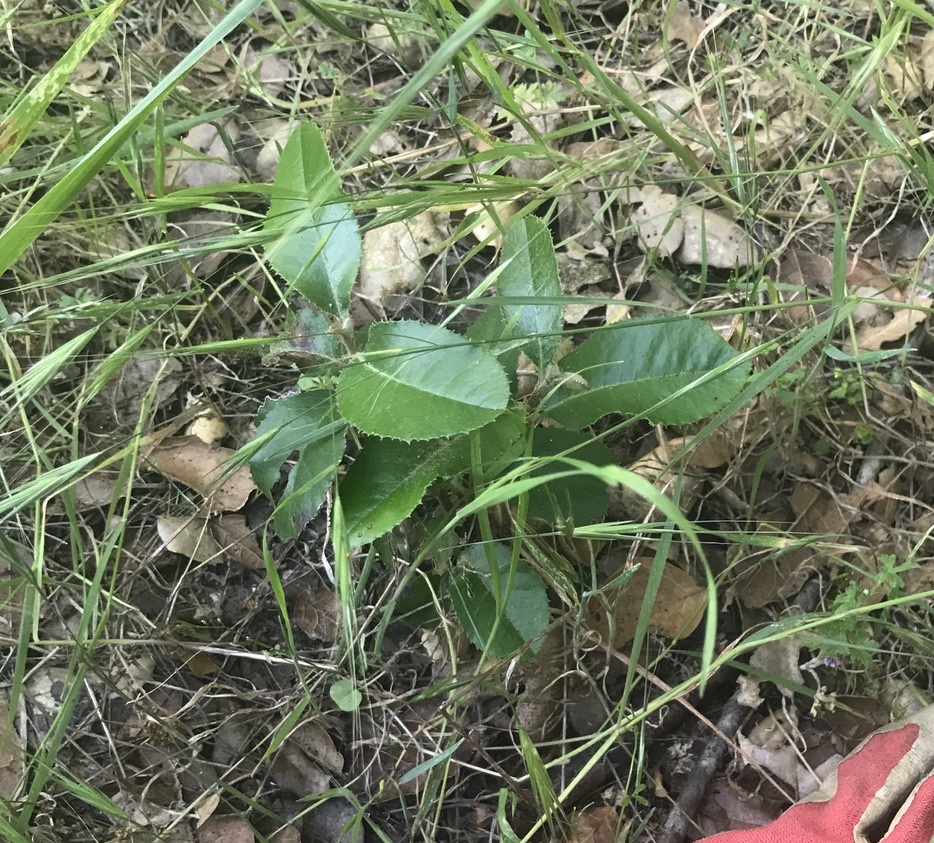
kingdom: Plantae
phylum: Tracheophyta
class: Magnoliopsida
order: Rosales
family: Rosaceae
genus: Heteromeles
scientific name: Heteromeles arbutifolia
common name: California-holly
